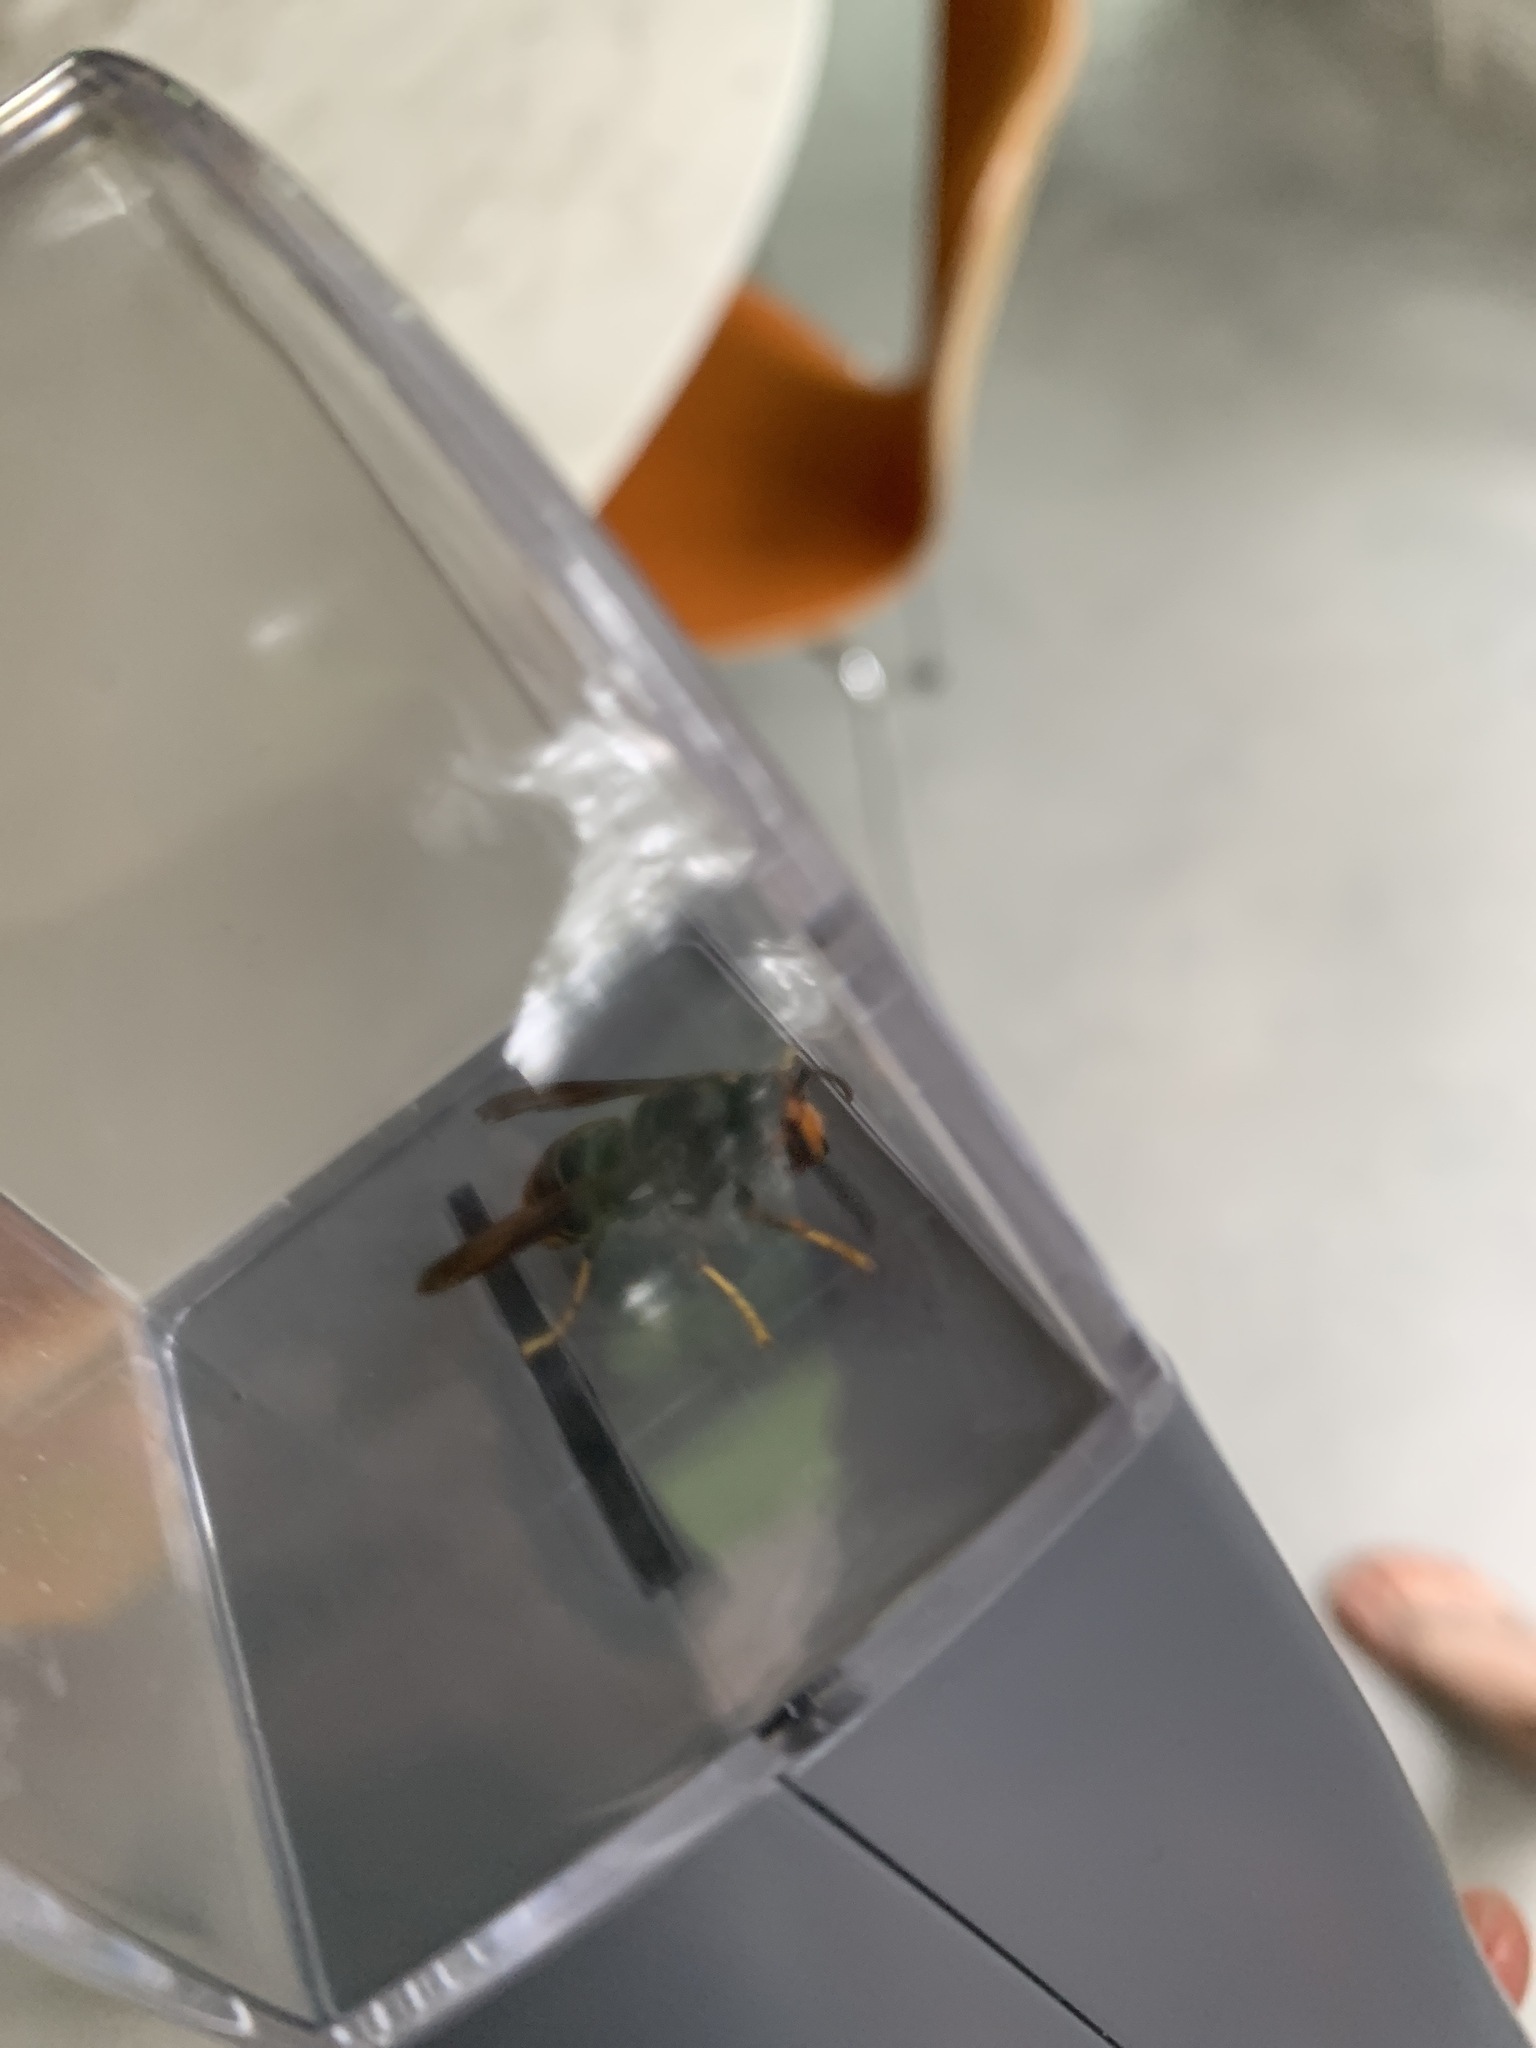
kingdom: Animalia
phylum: Arthropoda
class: Insecta
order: Hymenoptera
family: Vespidae
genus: Vespa
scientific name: Vespa velutina
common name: Asian hornet
